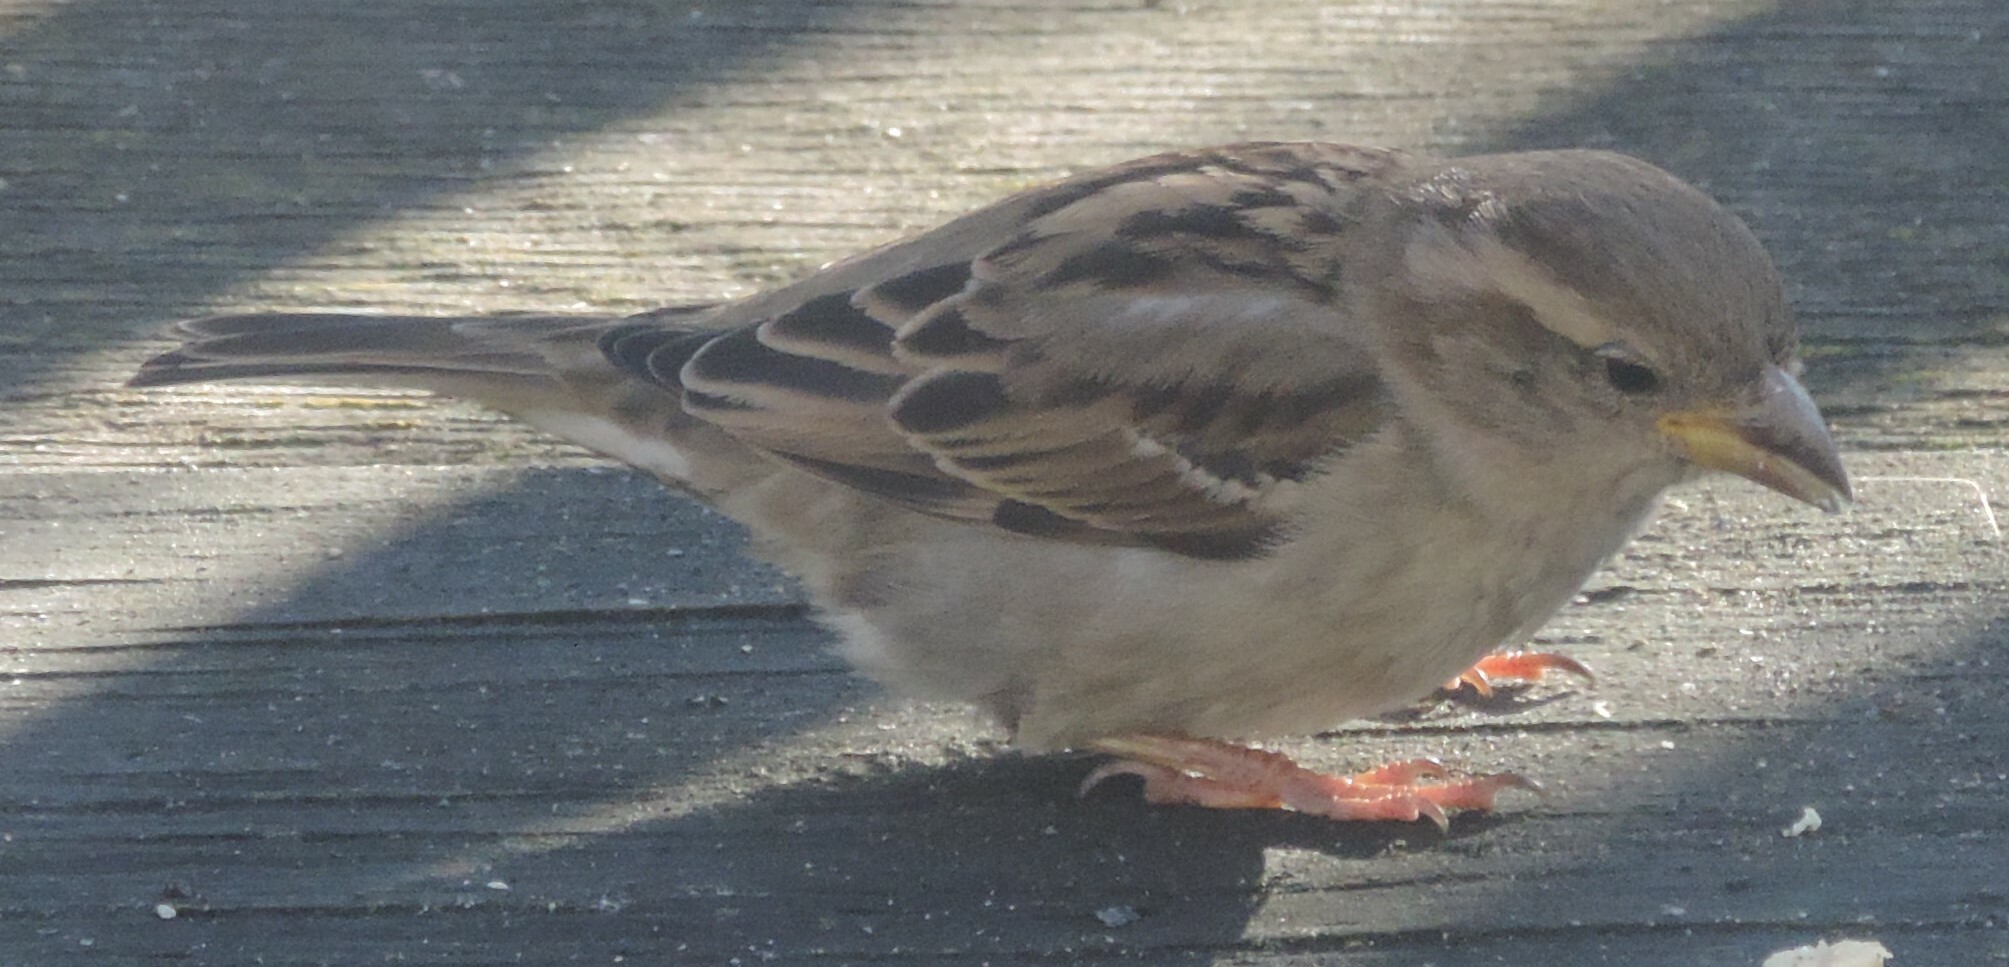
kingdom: Animalia
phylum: Chordata
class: Aves
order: Passeriformes
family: Passeridae
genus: Passer
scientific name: Passer domesticus
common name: House sparrow
